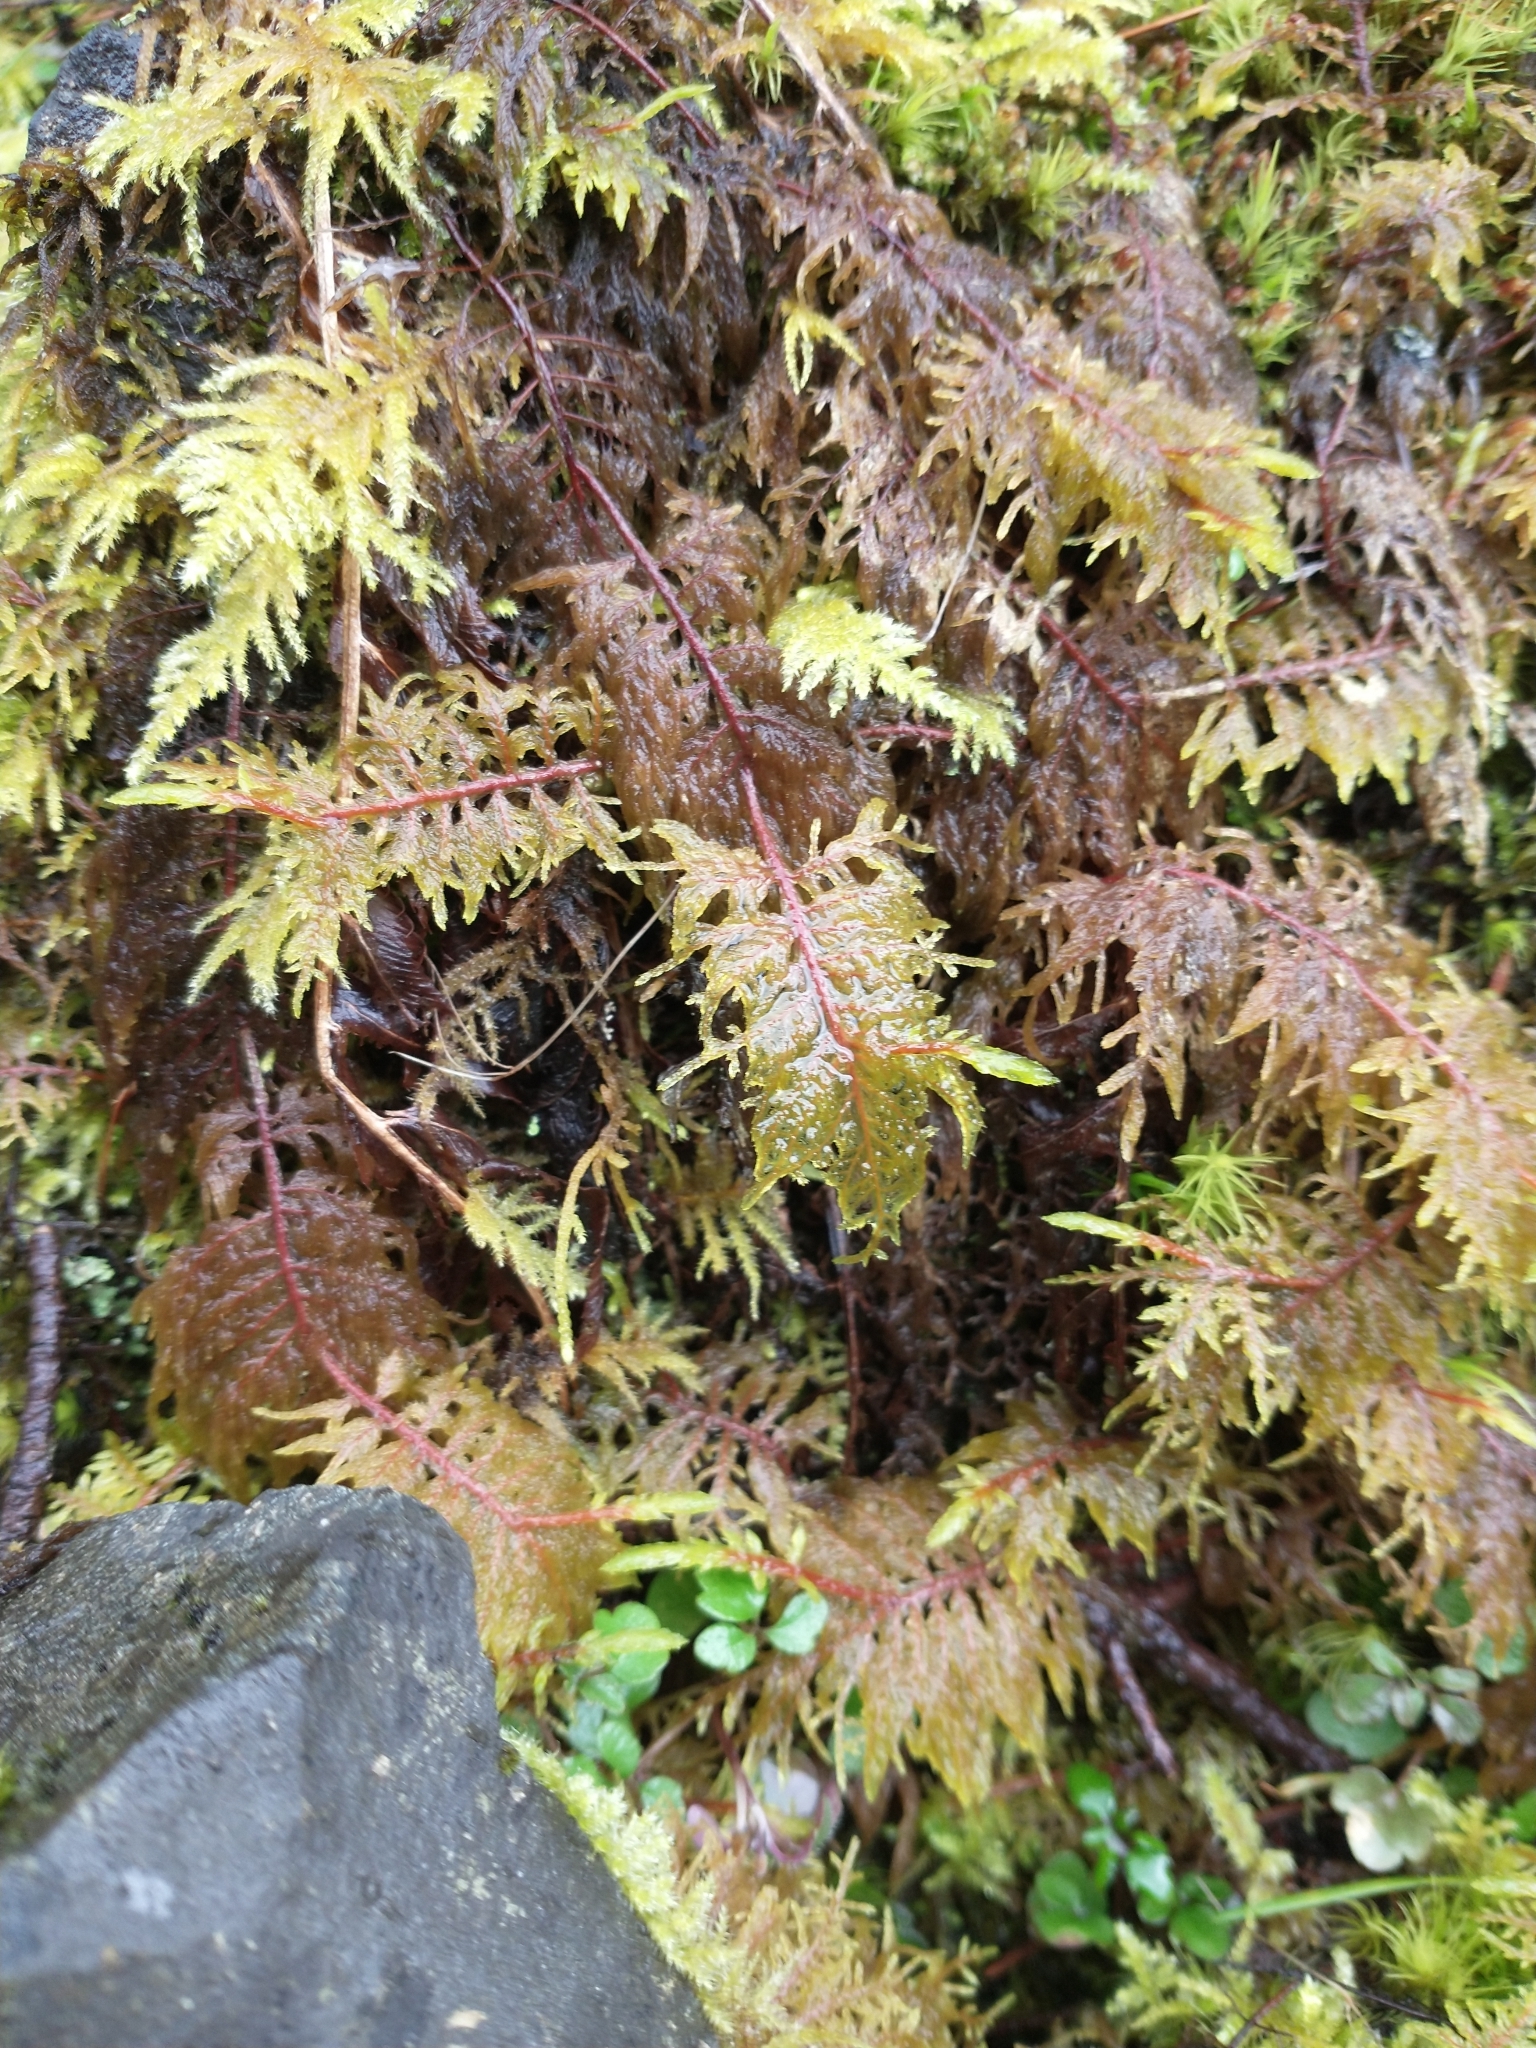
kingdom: Plantae
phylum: Bryophyta
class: Bryopsida
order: Hypnales
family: Hylocomiaceae
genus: Hylocomium
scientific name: Hylocomium splendens
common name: Stairstep moss
